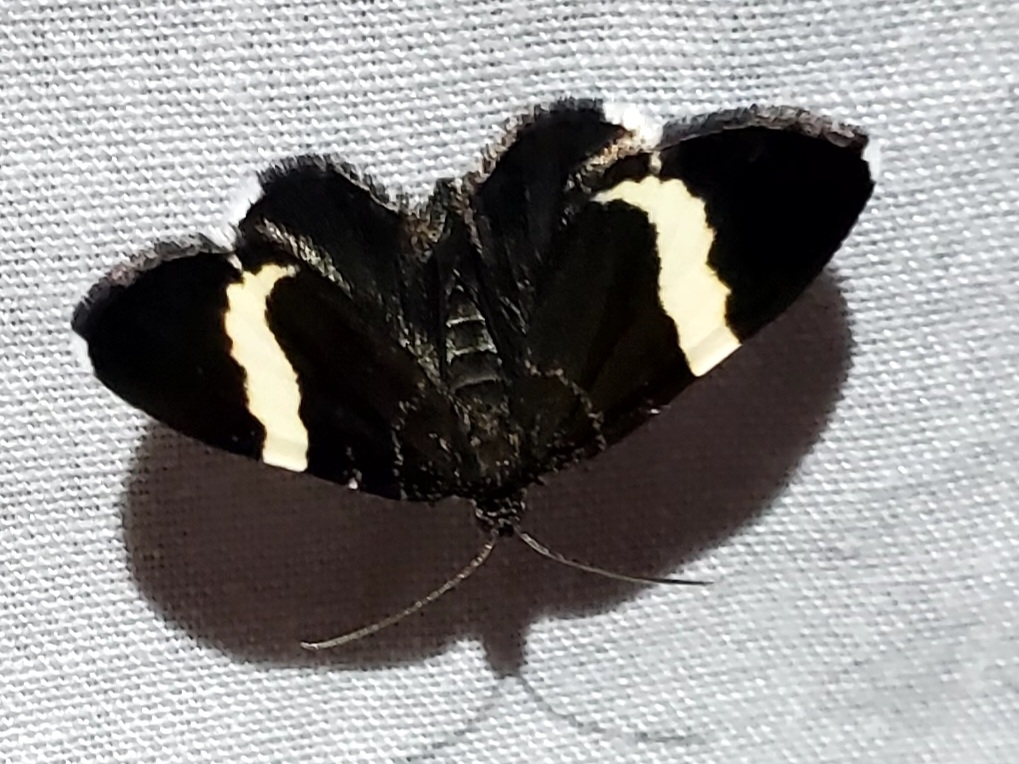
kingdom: Animalia
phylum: Arthropoda
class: Insecta
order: Lepidoptera
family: Geometridae
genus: Trichodezia
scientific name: Trichodezia albovittata
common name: White striped black
